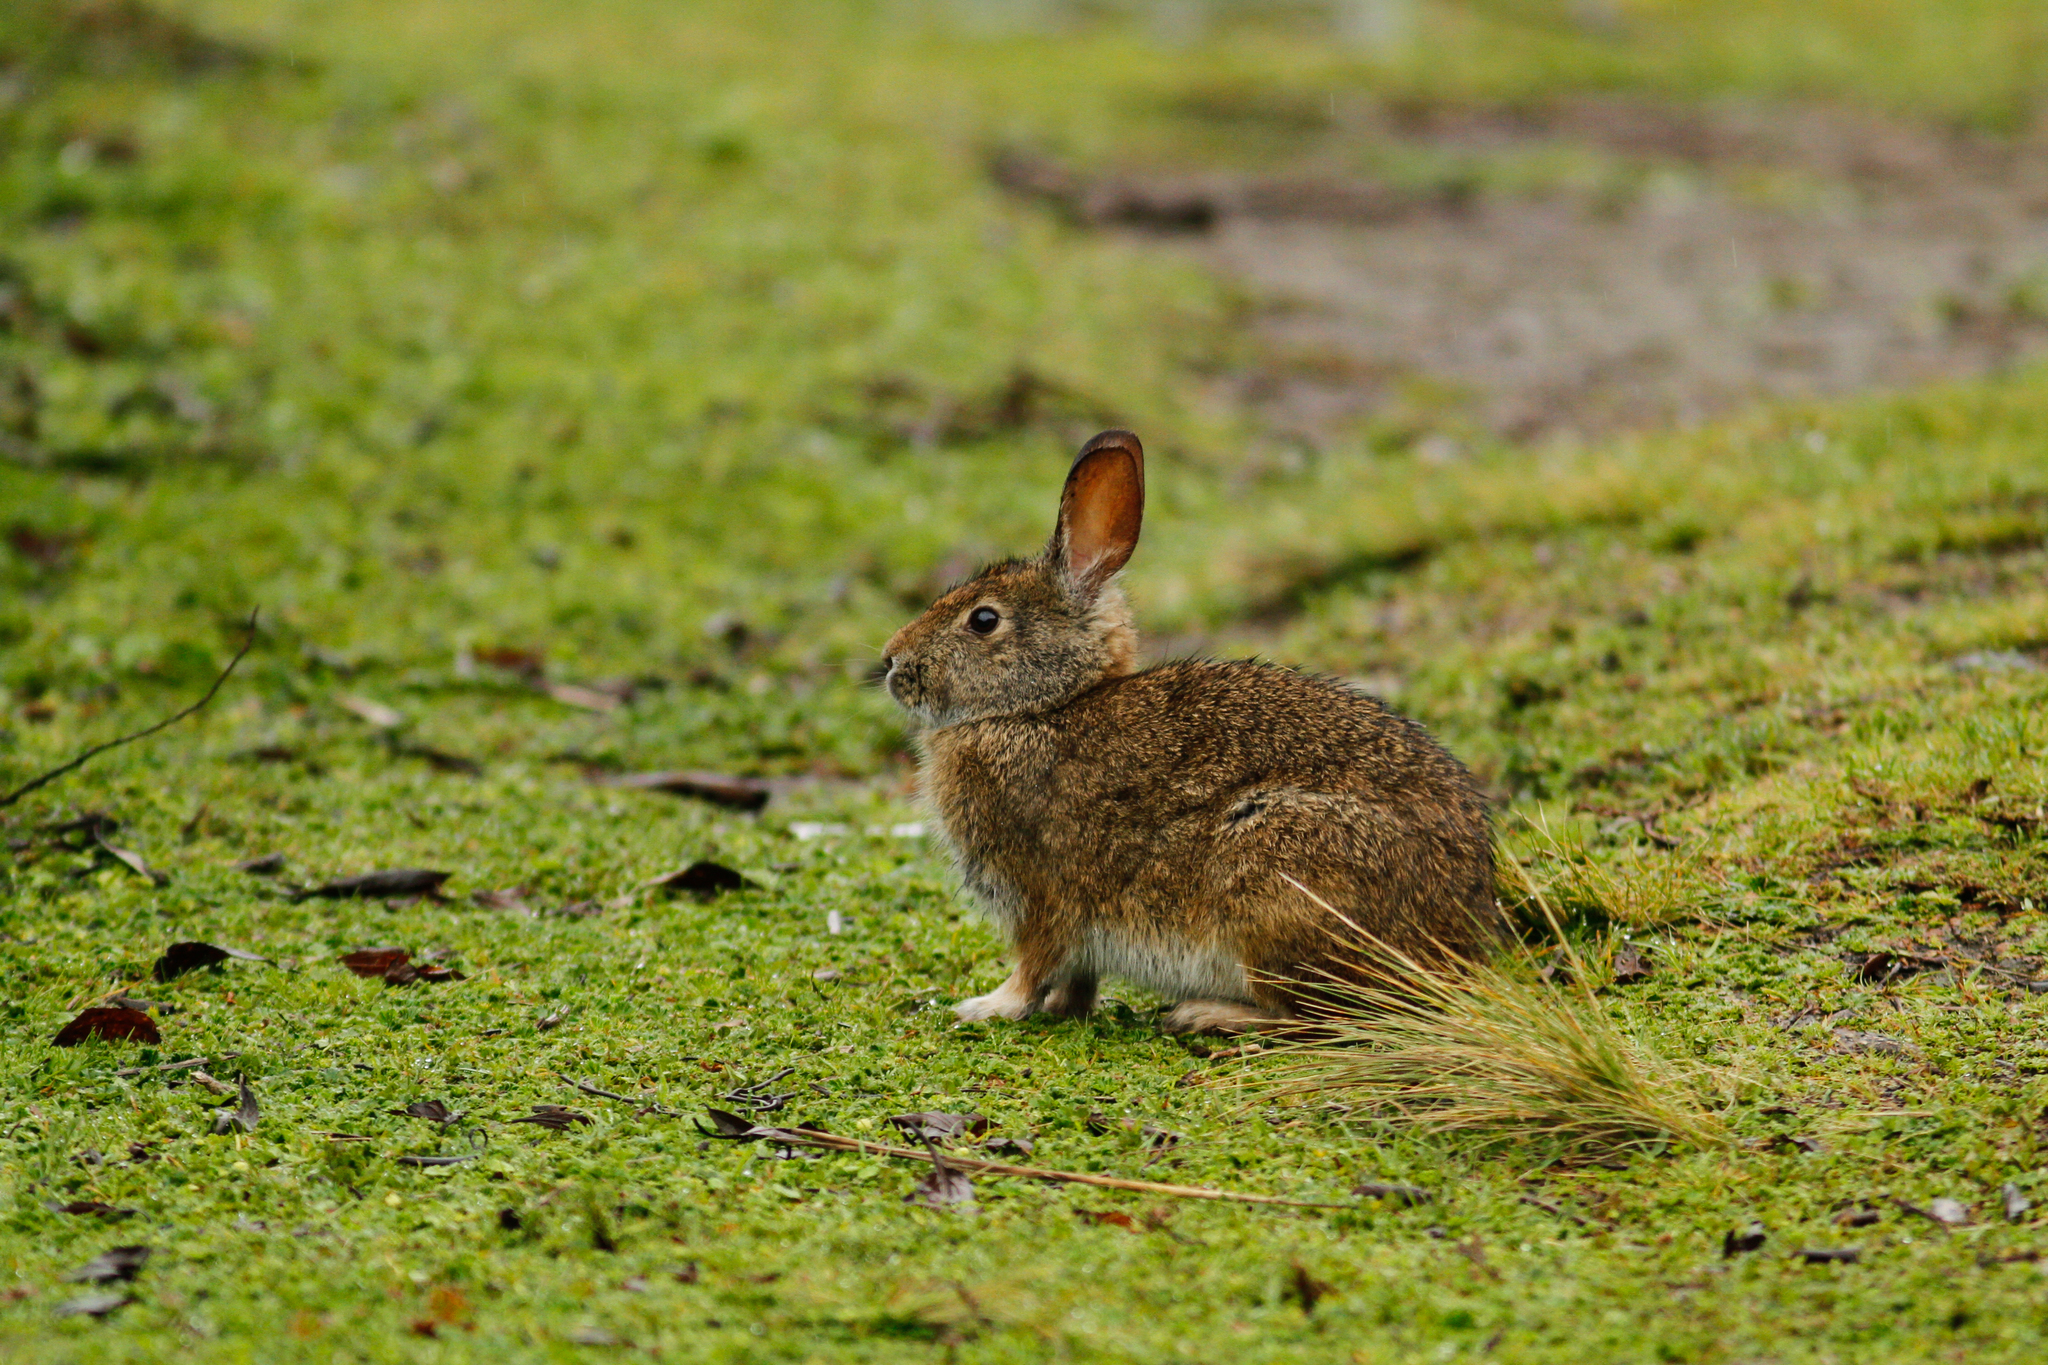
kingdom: Animalia
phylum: Chordata
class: Mammalia
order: Lagomorpha
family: Leporidae
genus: Sylvilagus
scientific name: Sylvilagus andinus
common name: Andean cottontail
